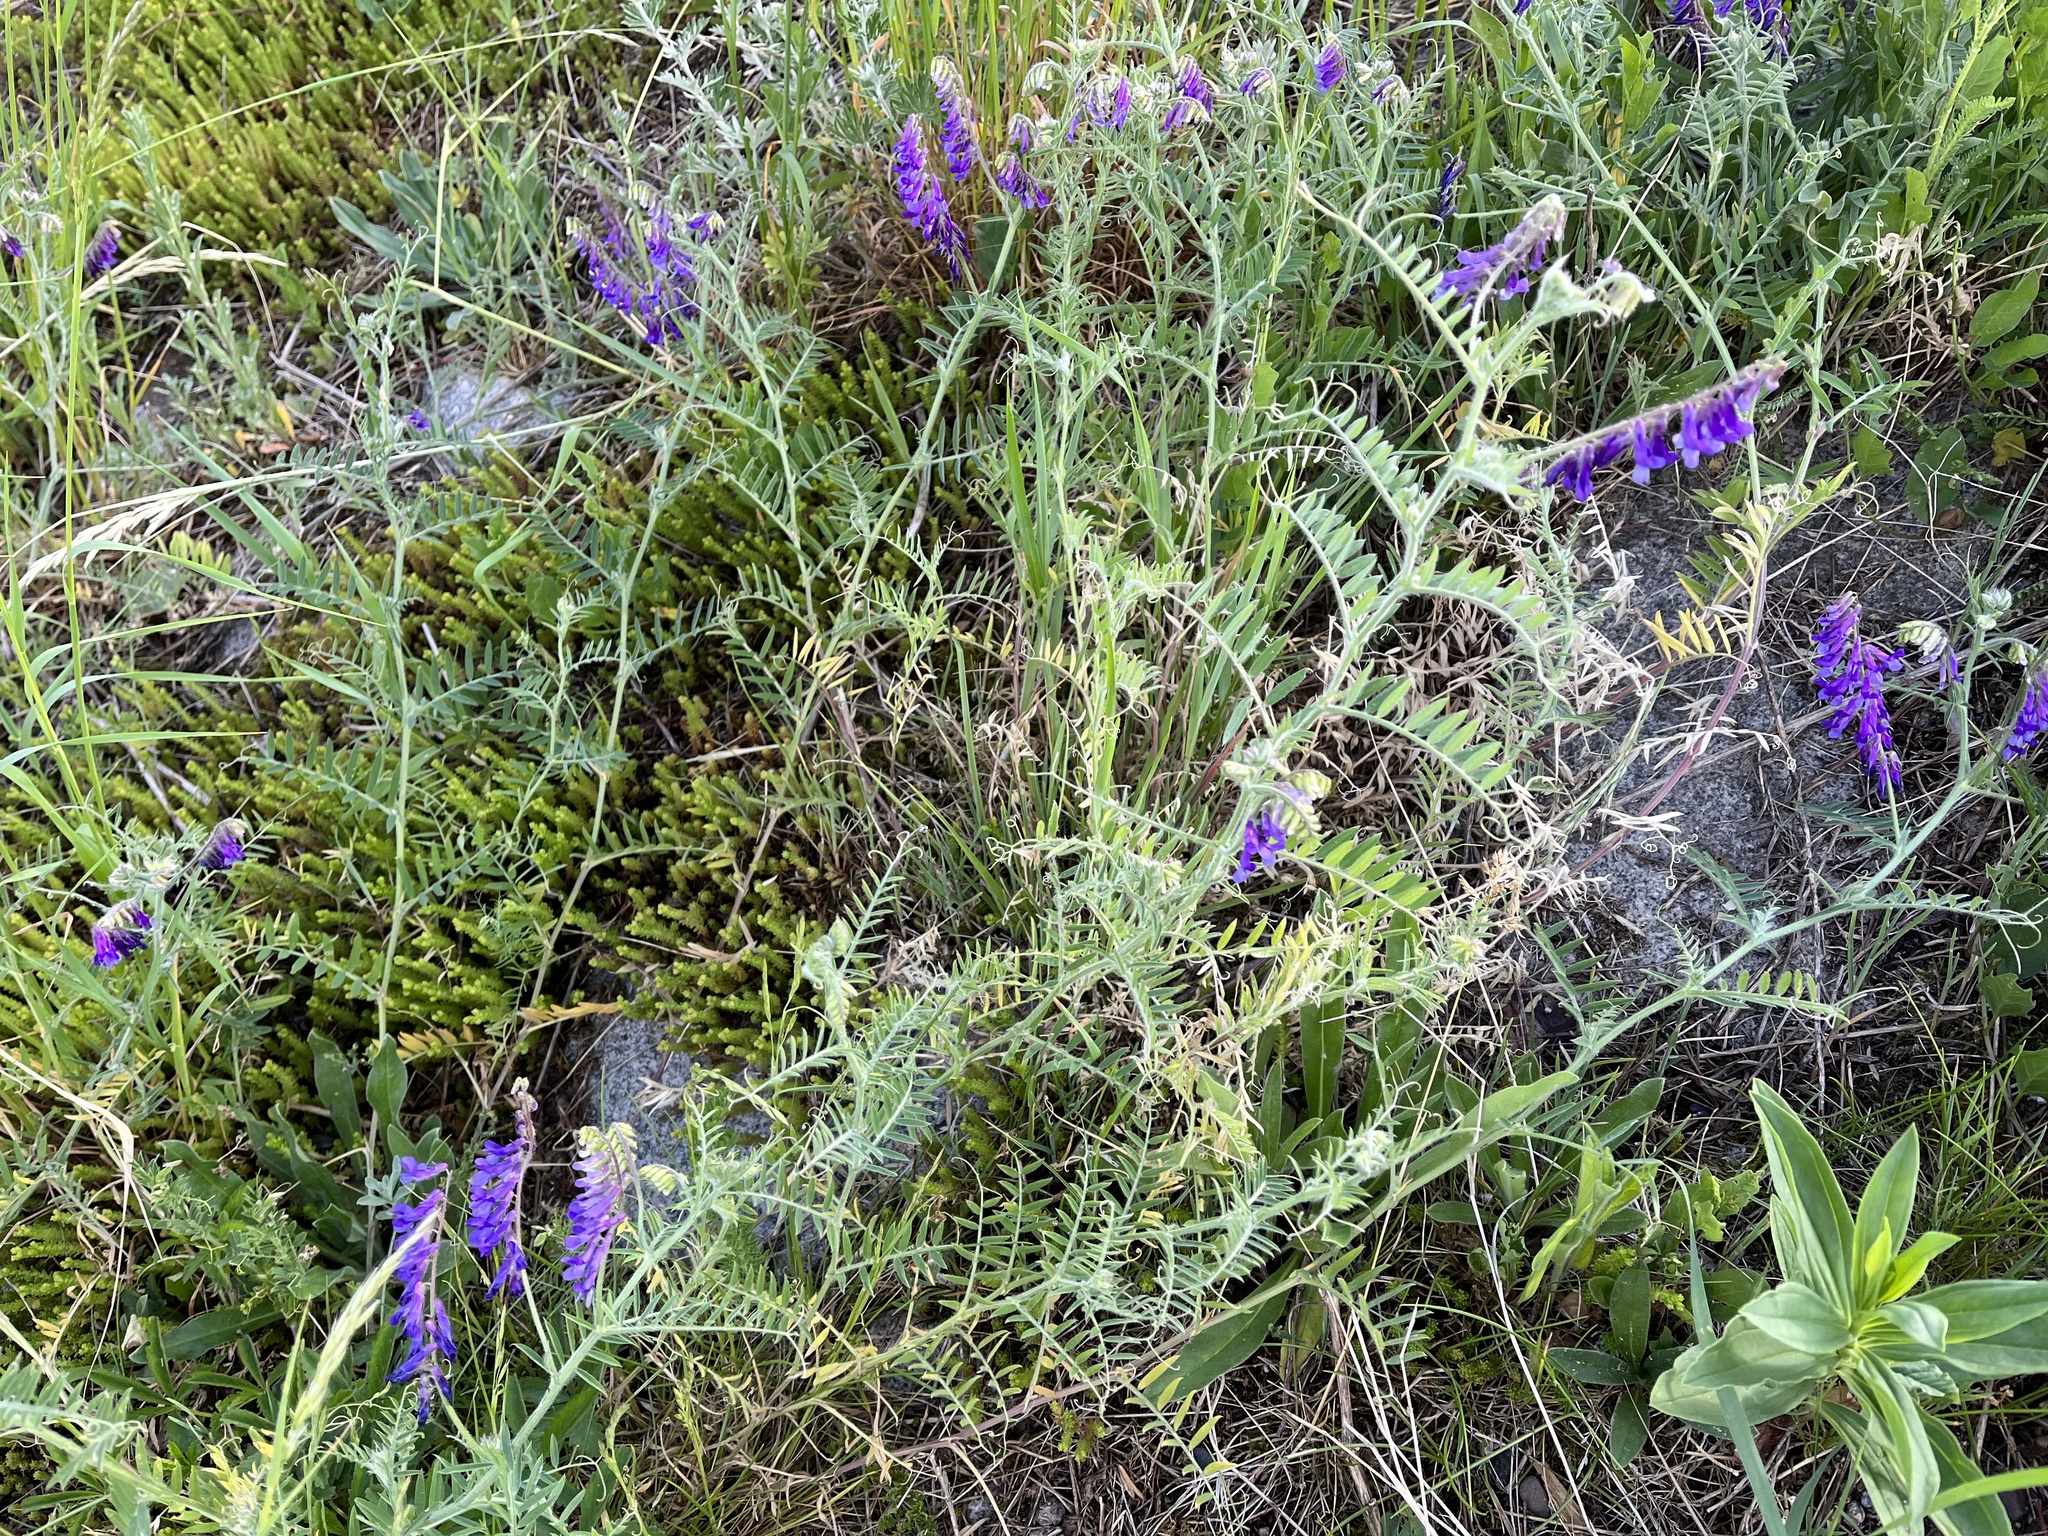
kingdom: Plantae
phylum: Tracheophyta
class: Magnoliopsida
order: Fabales
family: Fabaceae
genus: Vicia
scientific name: Vicia villosa
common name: Fodder vetch
